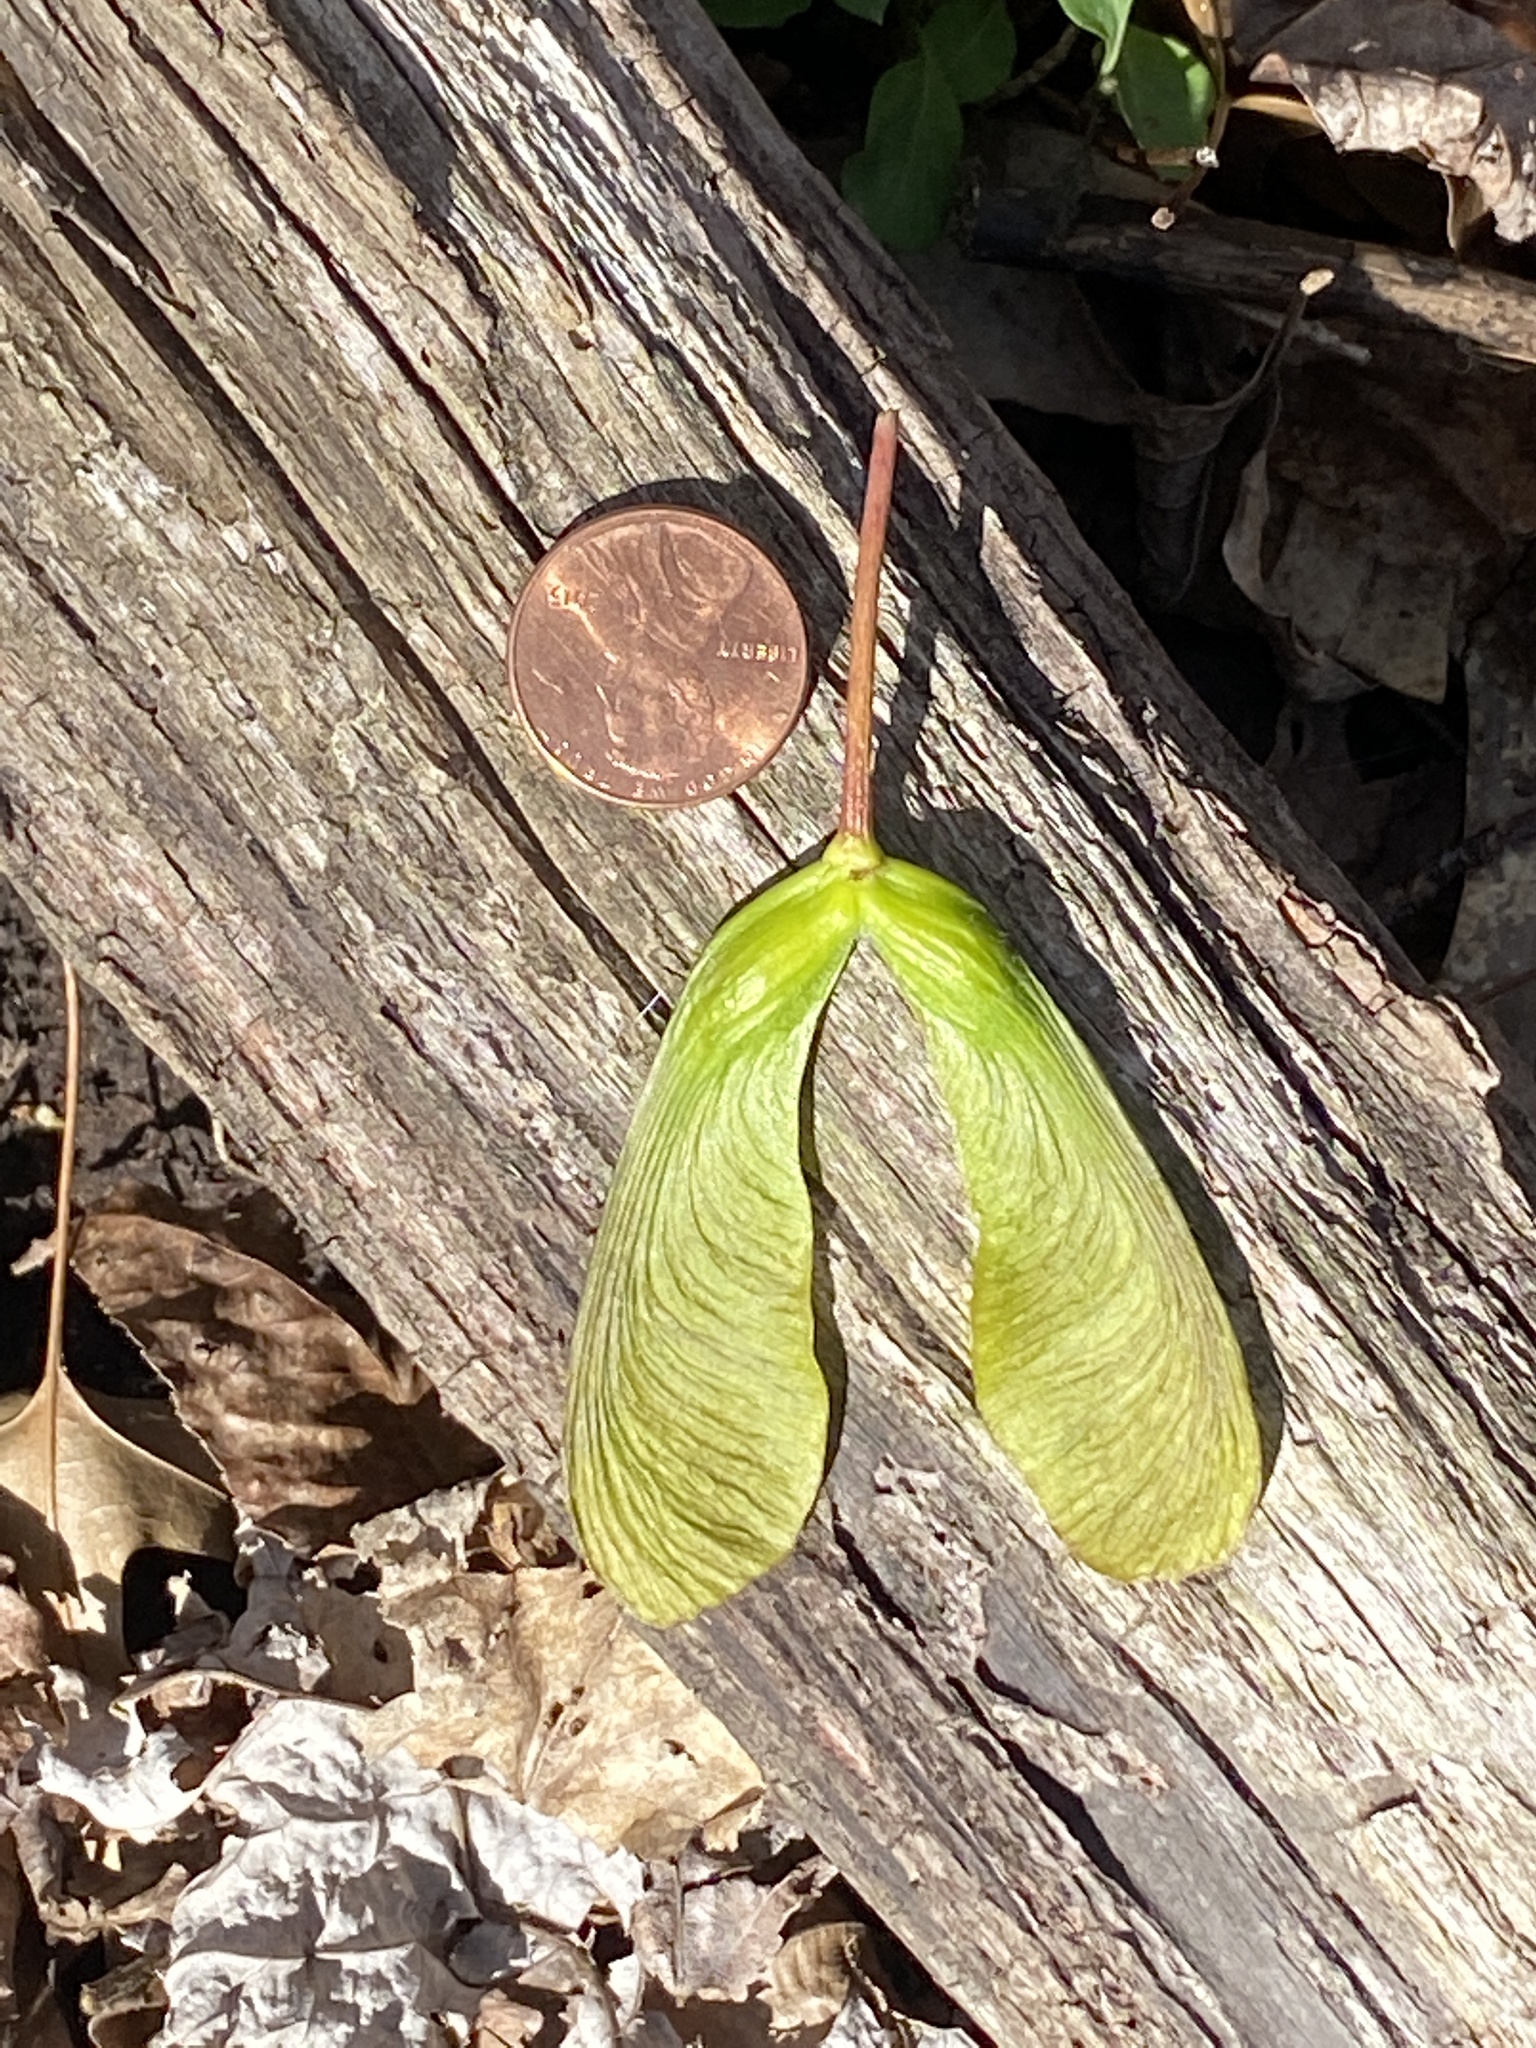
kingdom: Plantae
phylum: Tracheophyta
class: Magnoliopsida
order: Sapindales
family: Sapindaceae
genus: Acer
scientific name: Acer saccharinum
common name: Silver maple
